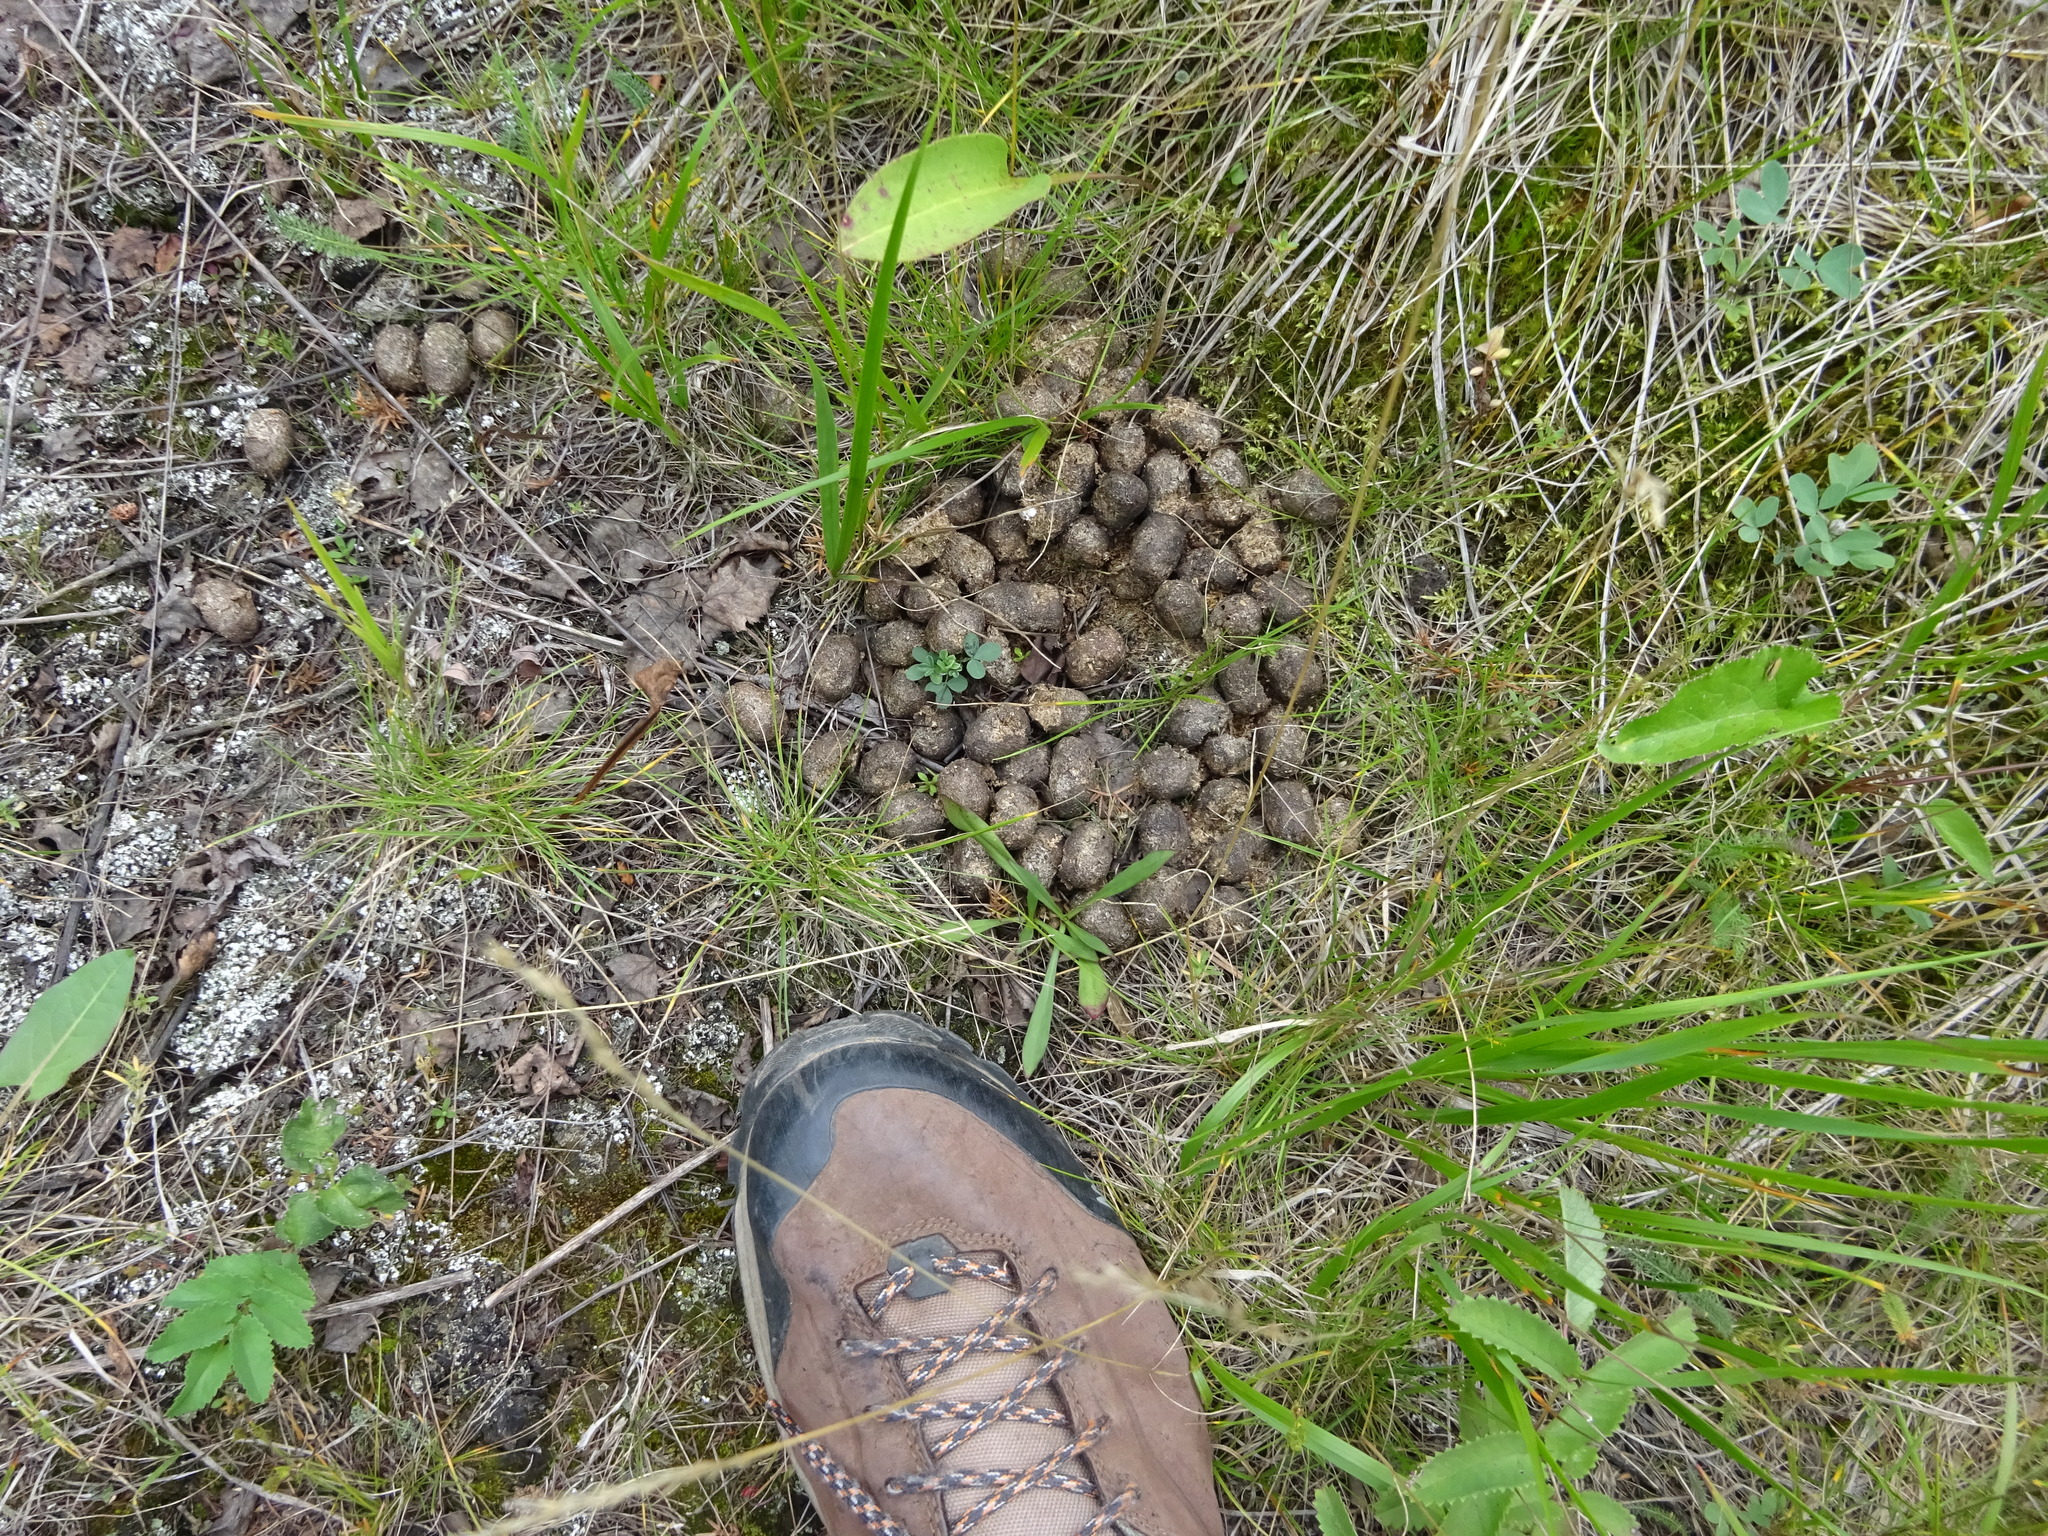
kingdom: Animalia
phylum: Chordata
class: Mammalia
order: Artiodactyla
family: Cervidae
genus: Alces
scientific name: Alces alces
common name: Moose
